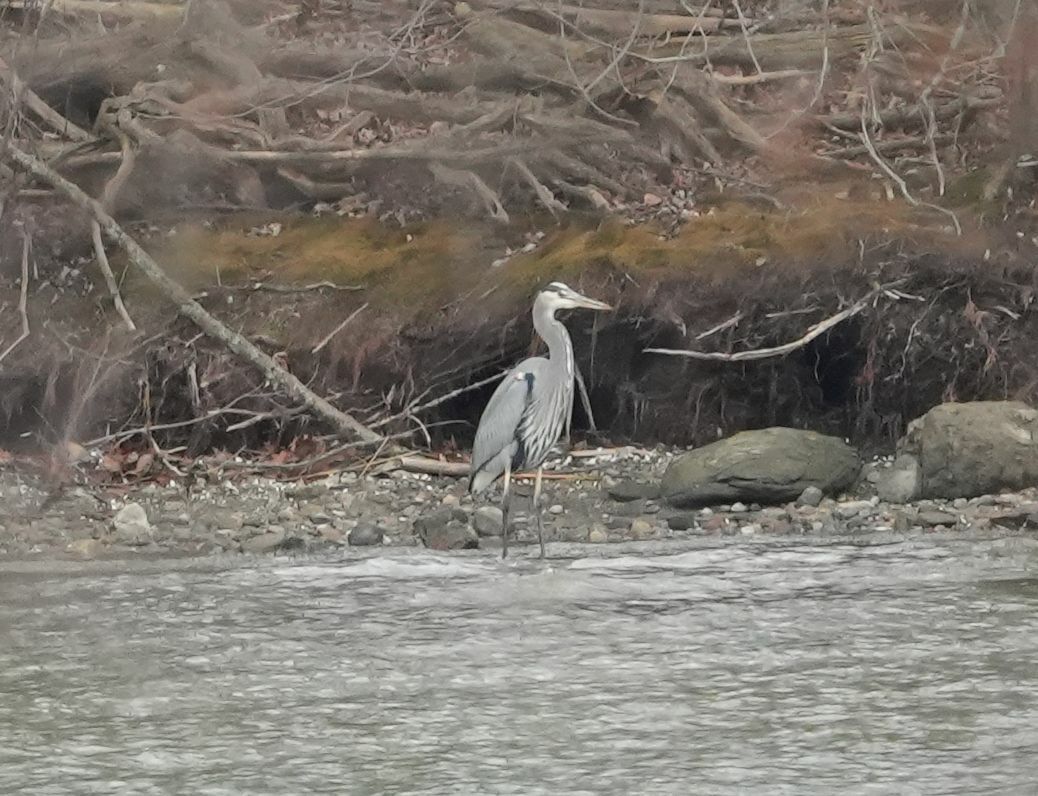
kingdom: Animalia
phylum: Chordata
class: Aves
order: Pelecaniformes
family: Ardeidae
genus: Ardea
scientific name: Ardea herodias
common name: Great blue heron
